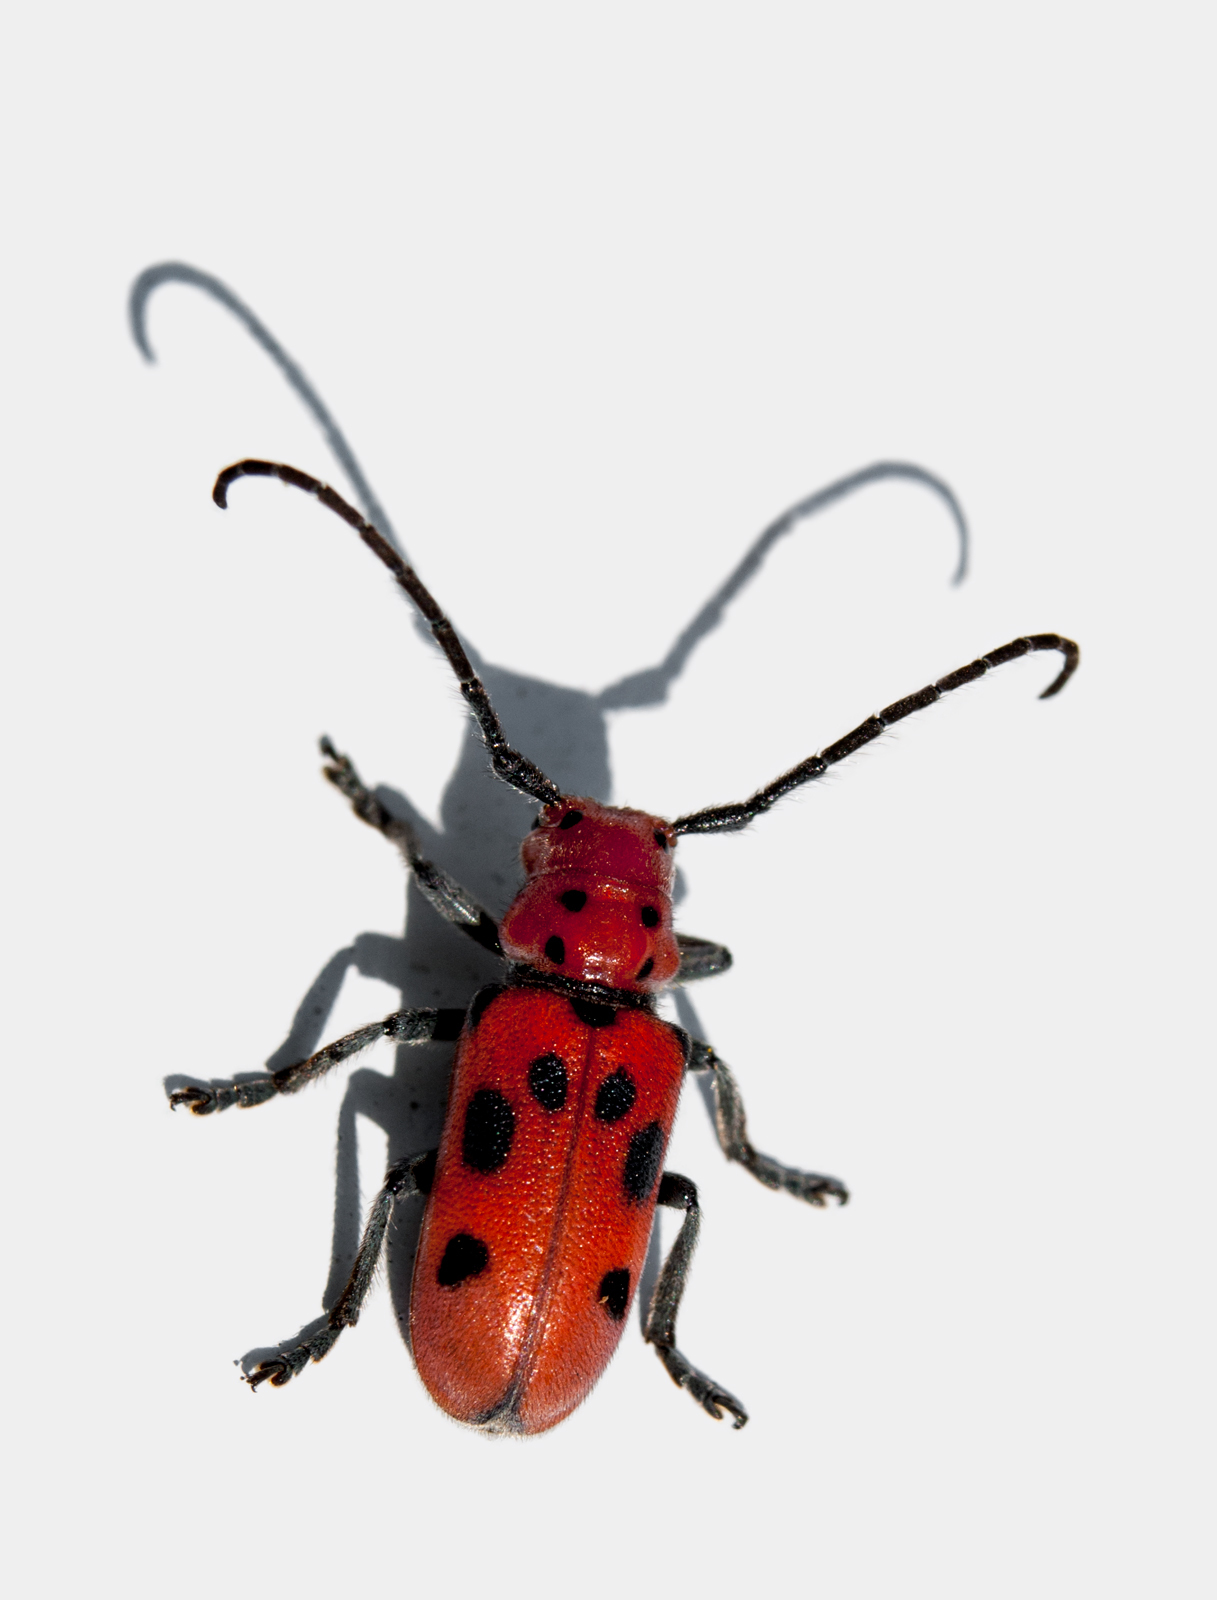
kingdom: Animalia
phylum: Arthropoda
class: Insecta
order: Coleoptera
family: Cerambycidae
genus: Tetraopes
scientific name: Tetraopes tetrophthalmus
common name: Red milkweed beetle
